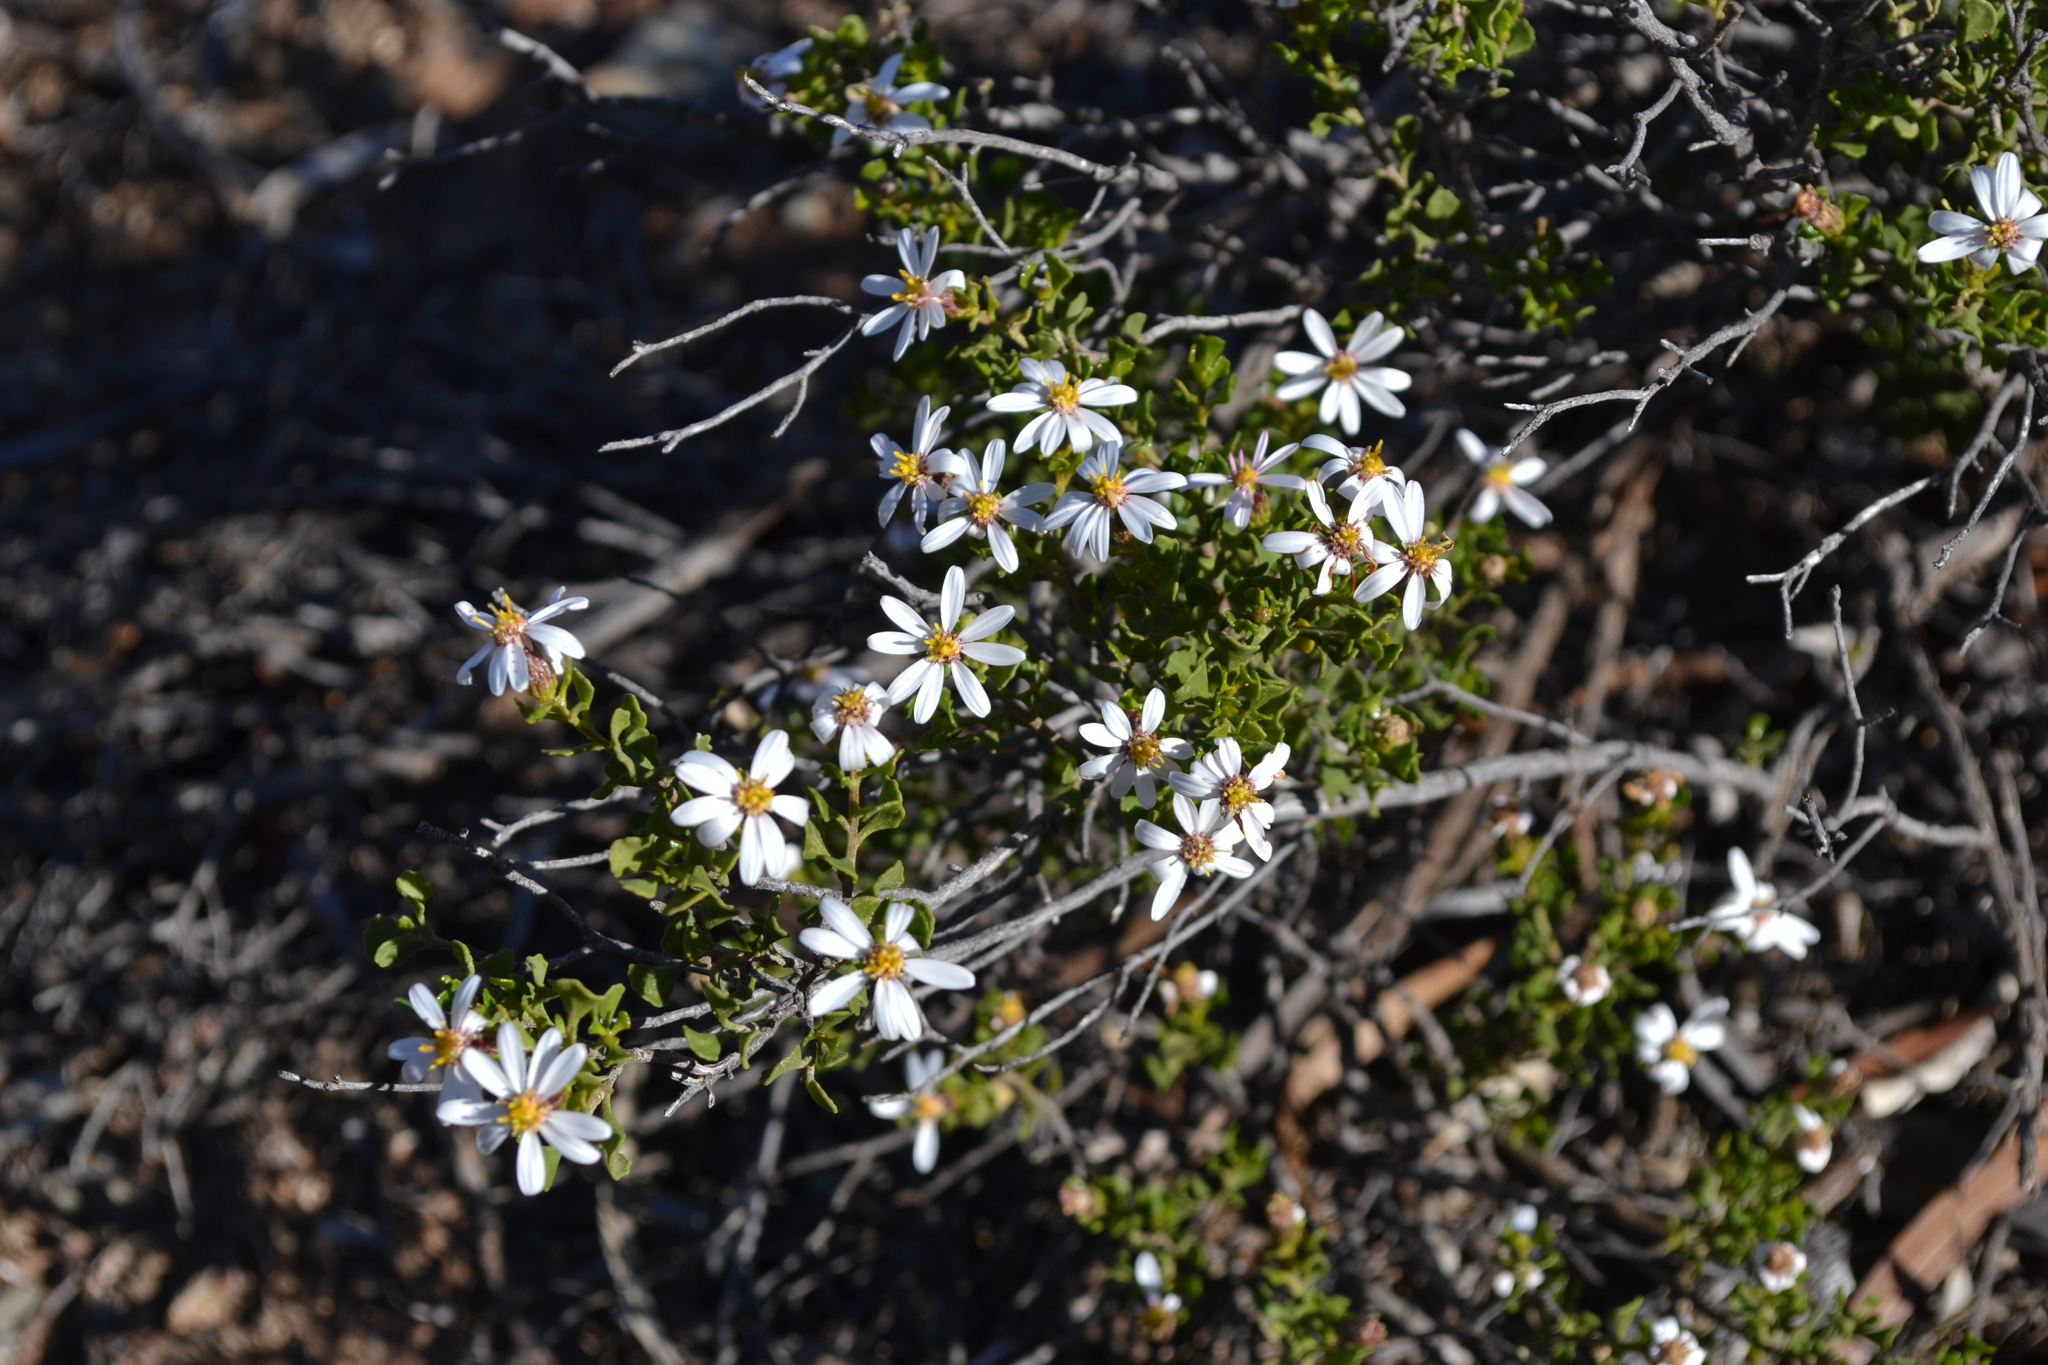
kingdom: Plantae
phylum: Tracheophyta
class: Magnoliopsida
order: Asterales
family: Asteraceae
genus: Walsholaria
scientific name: Walsholaria muelleri
